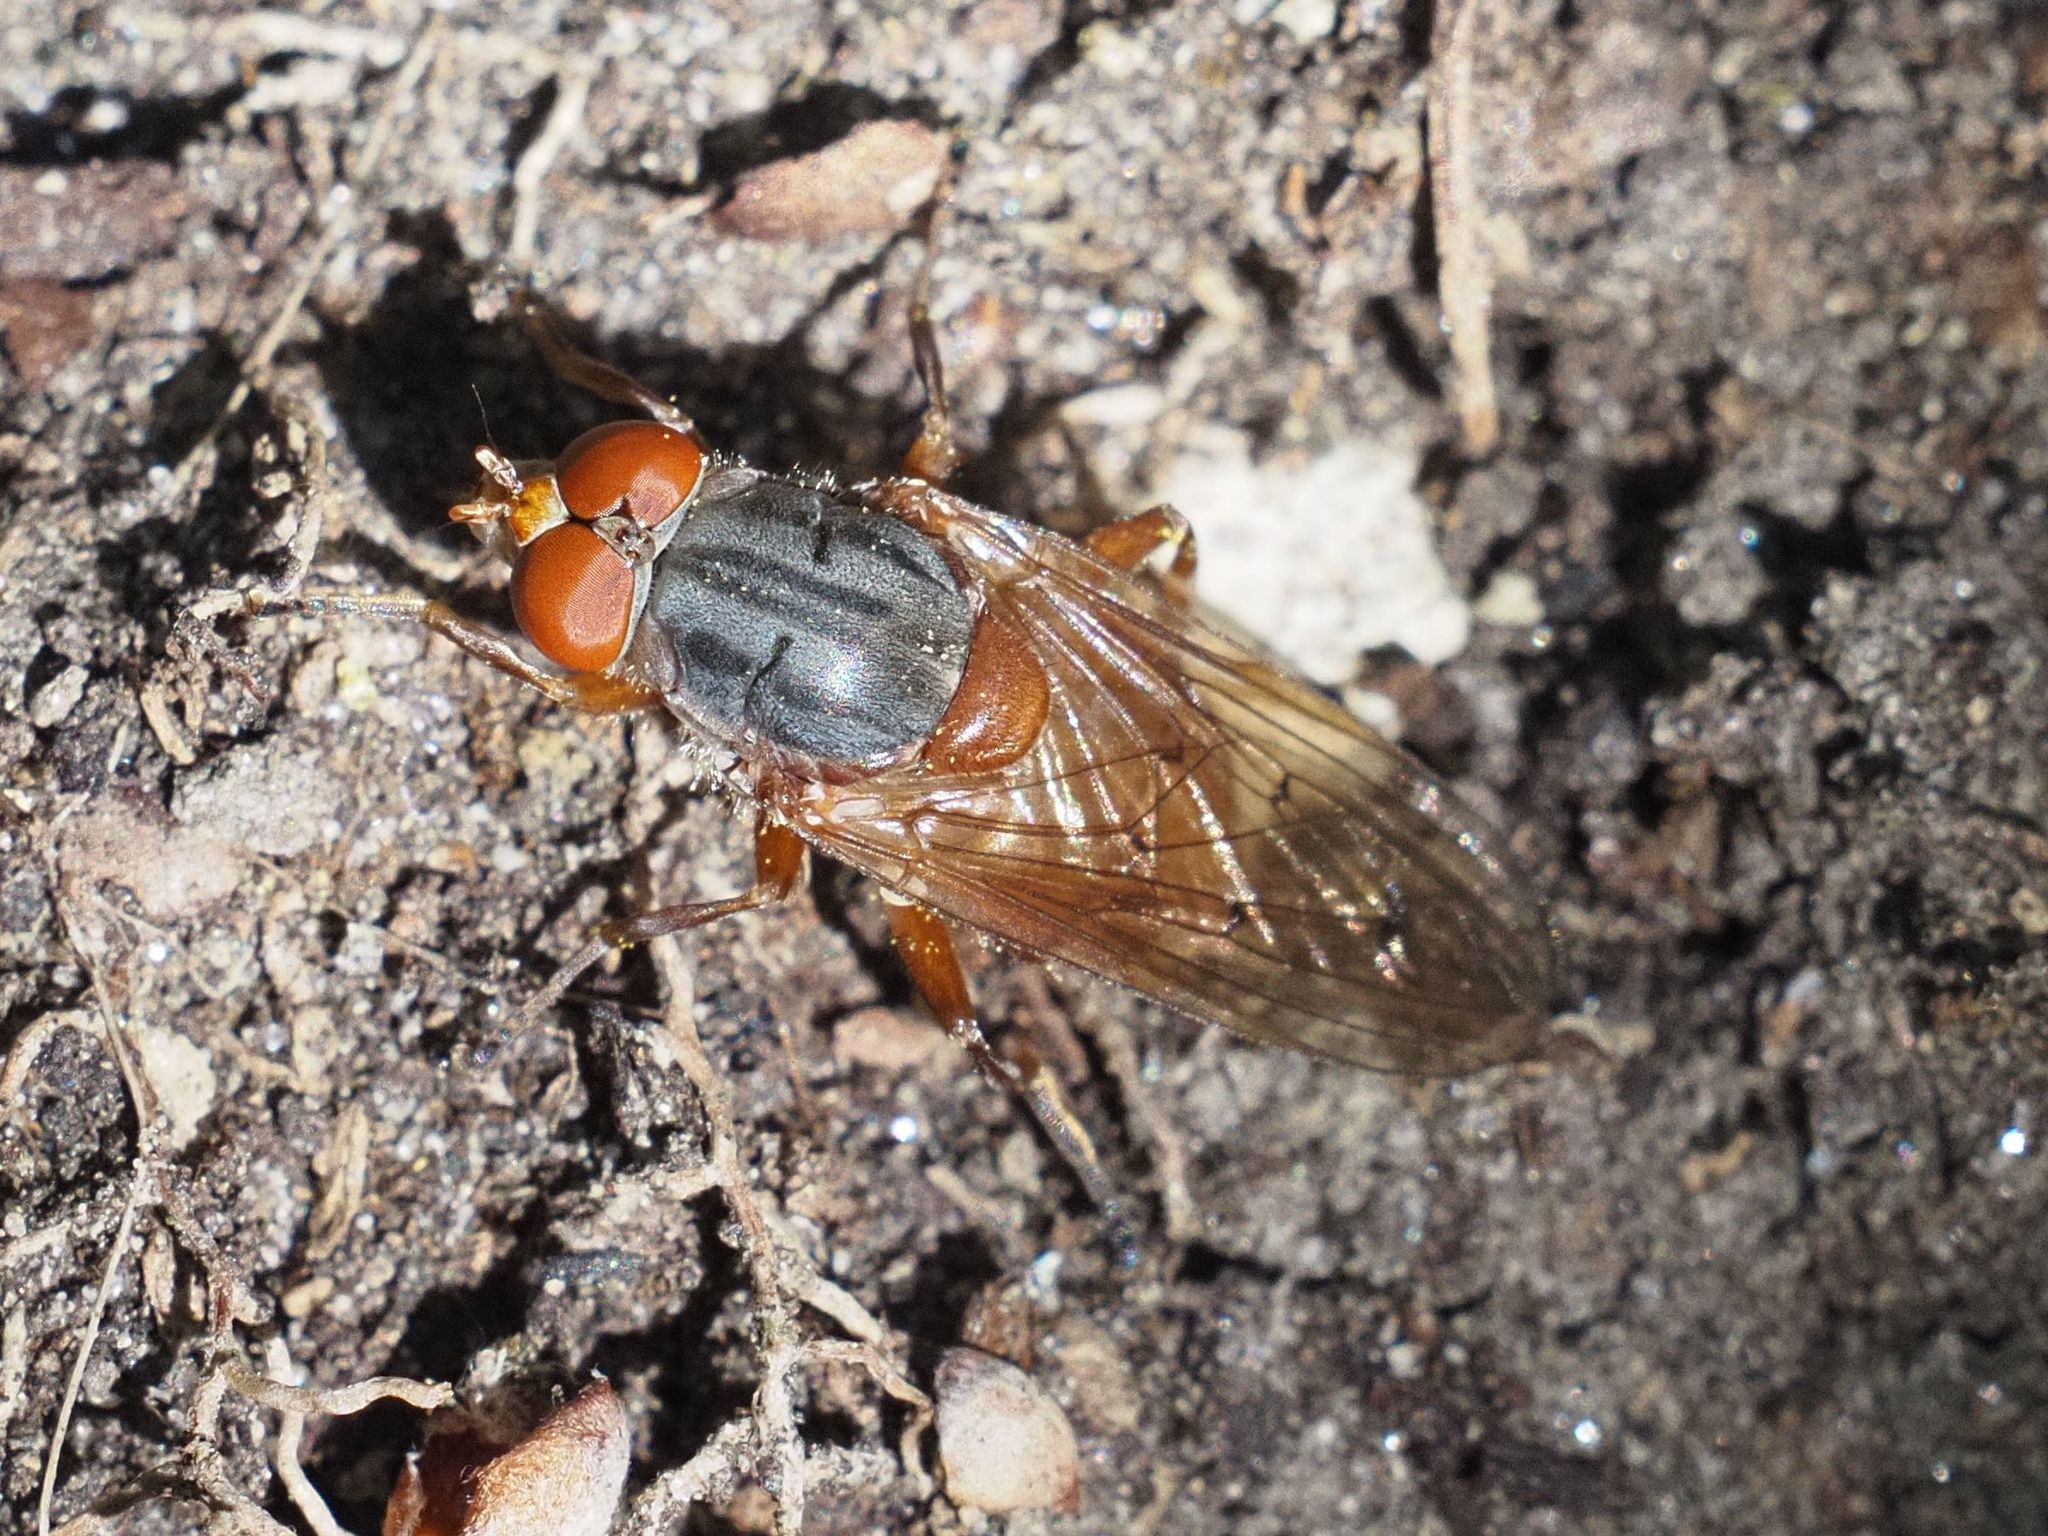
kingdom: Animalia
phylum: Arthropoda
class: Insecta
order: Diptera
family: Syrphidae
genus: Brachyopa
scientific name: Brachyopa maculipennis
